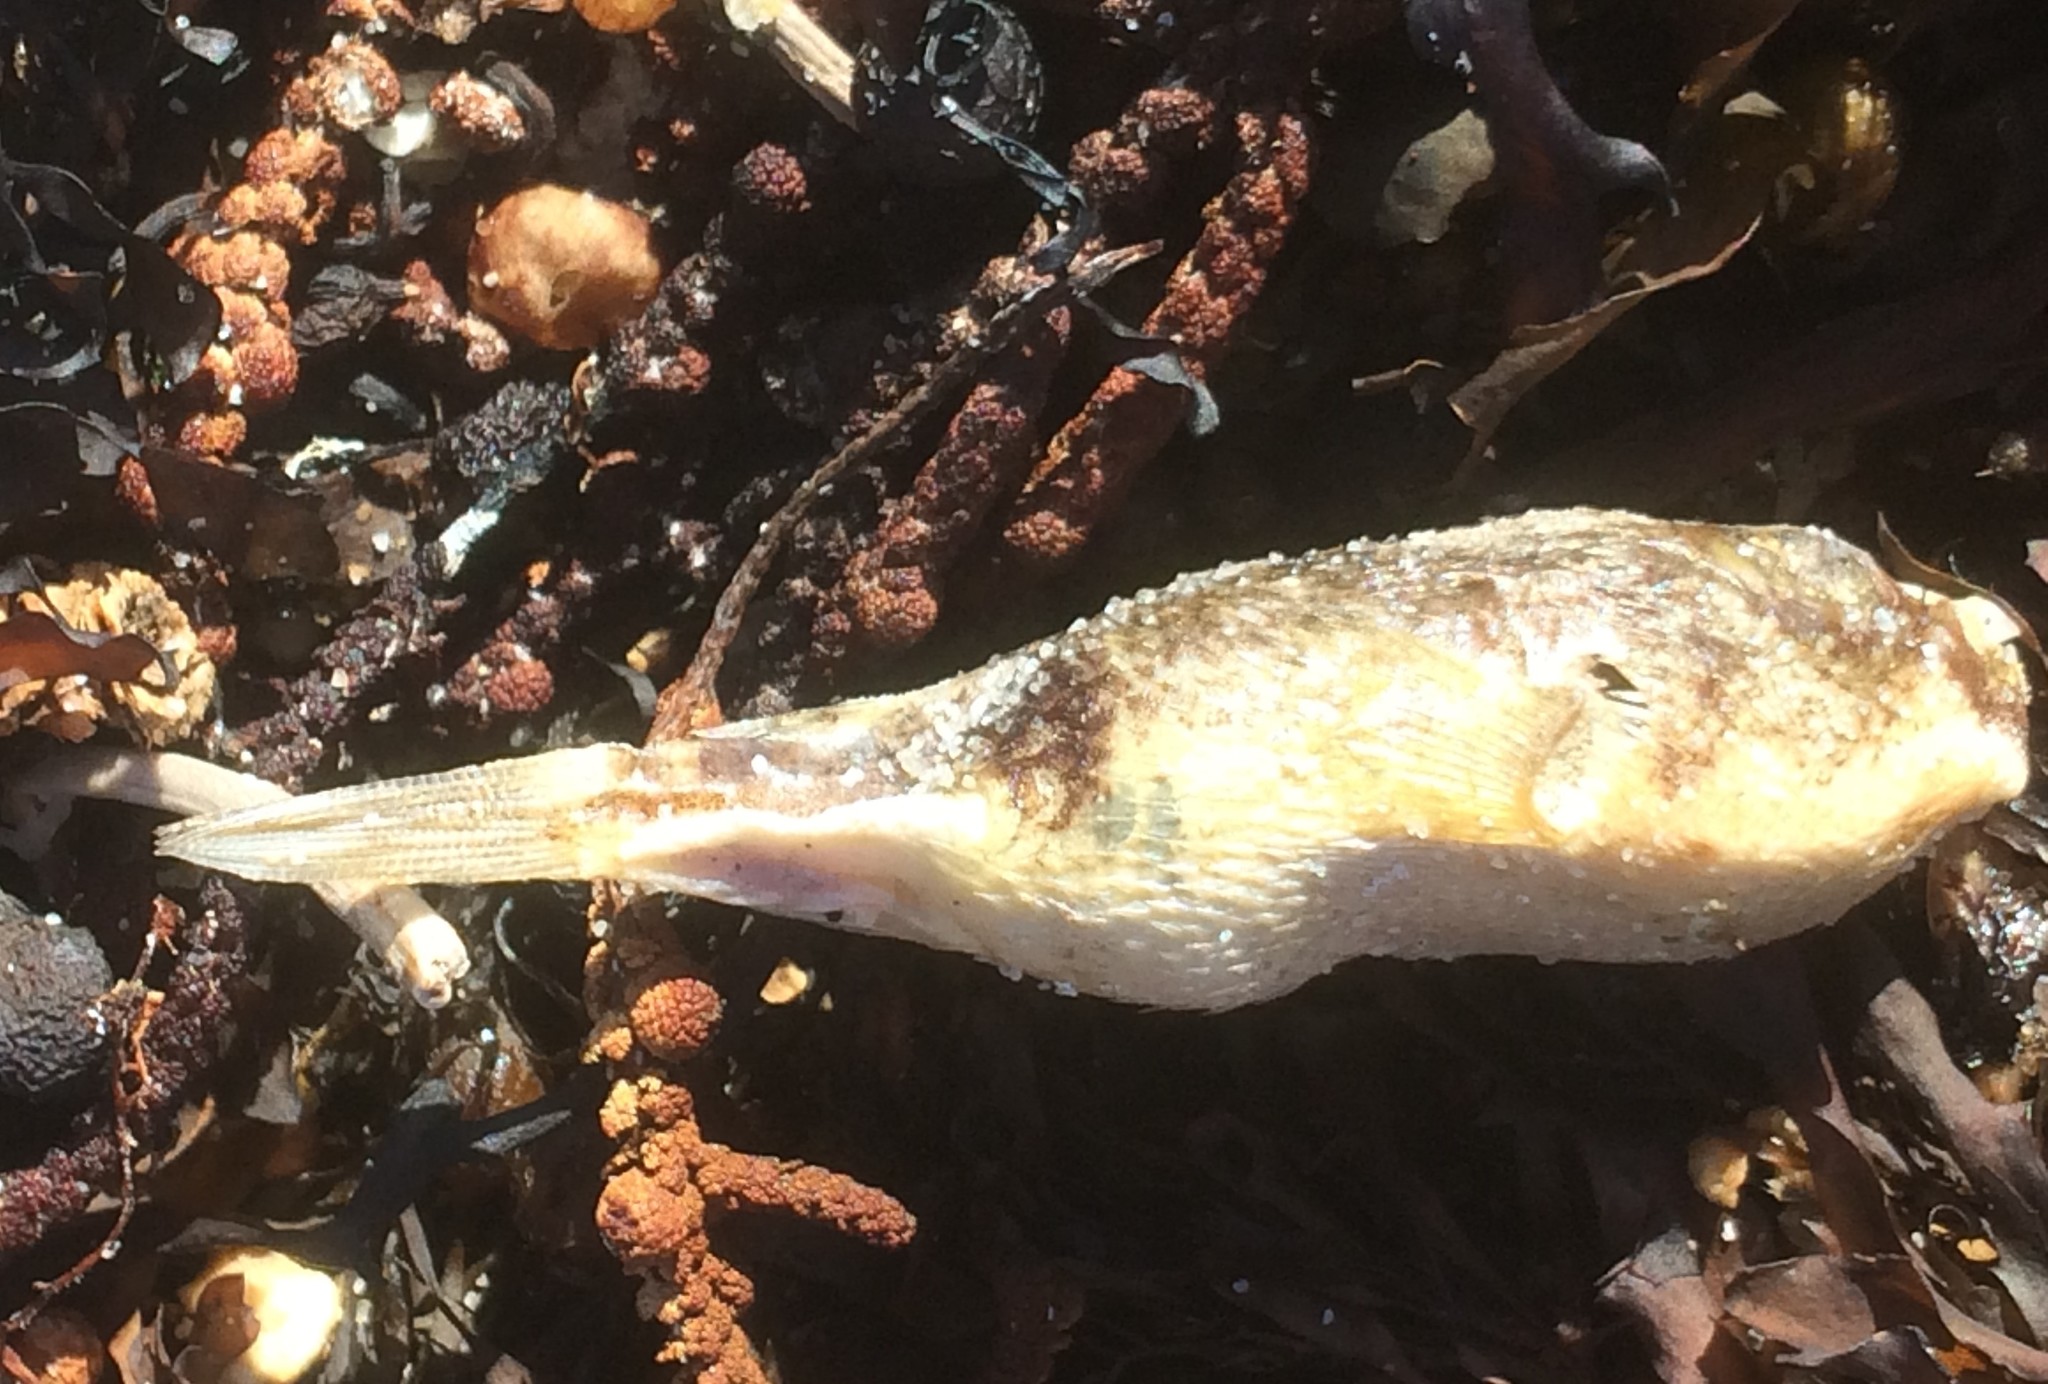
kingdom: Animalia
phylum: Chordata
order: Tetraodontiformes
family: Tetraodontidae
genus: Polyspina
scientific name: Polyspina piosae
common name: Orange-barred pufferfish
